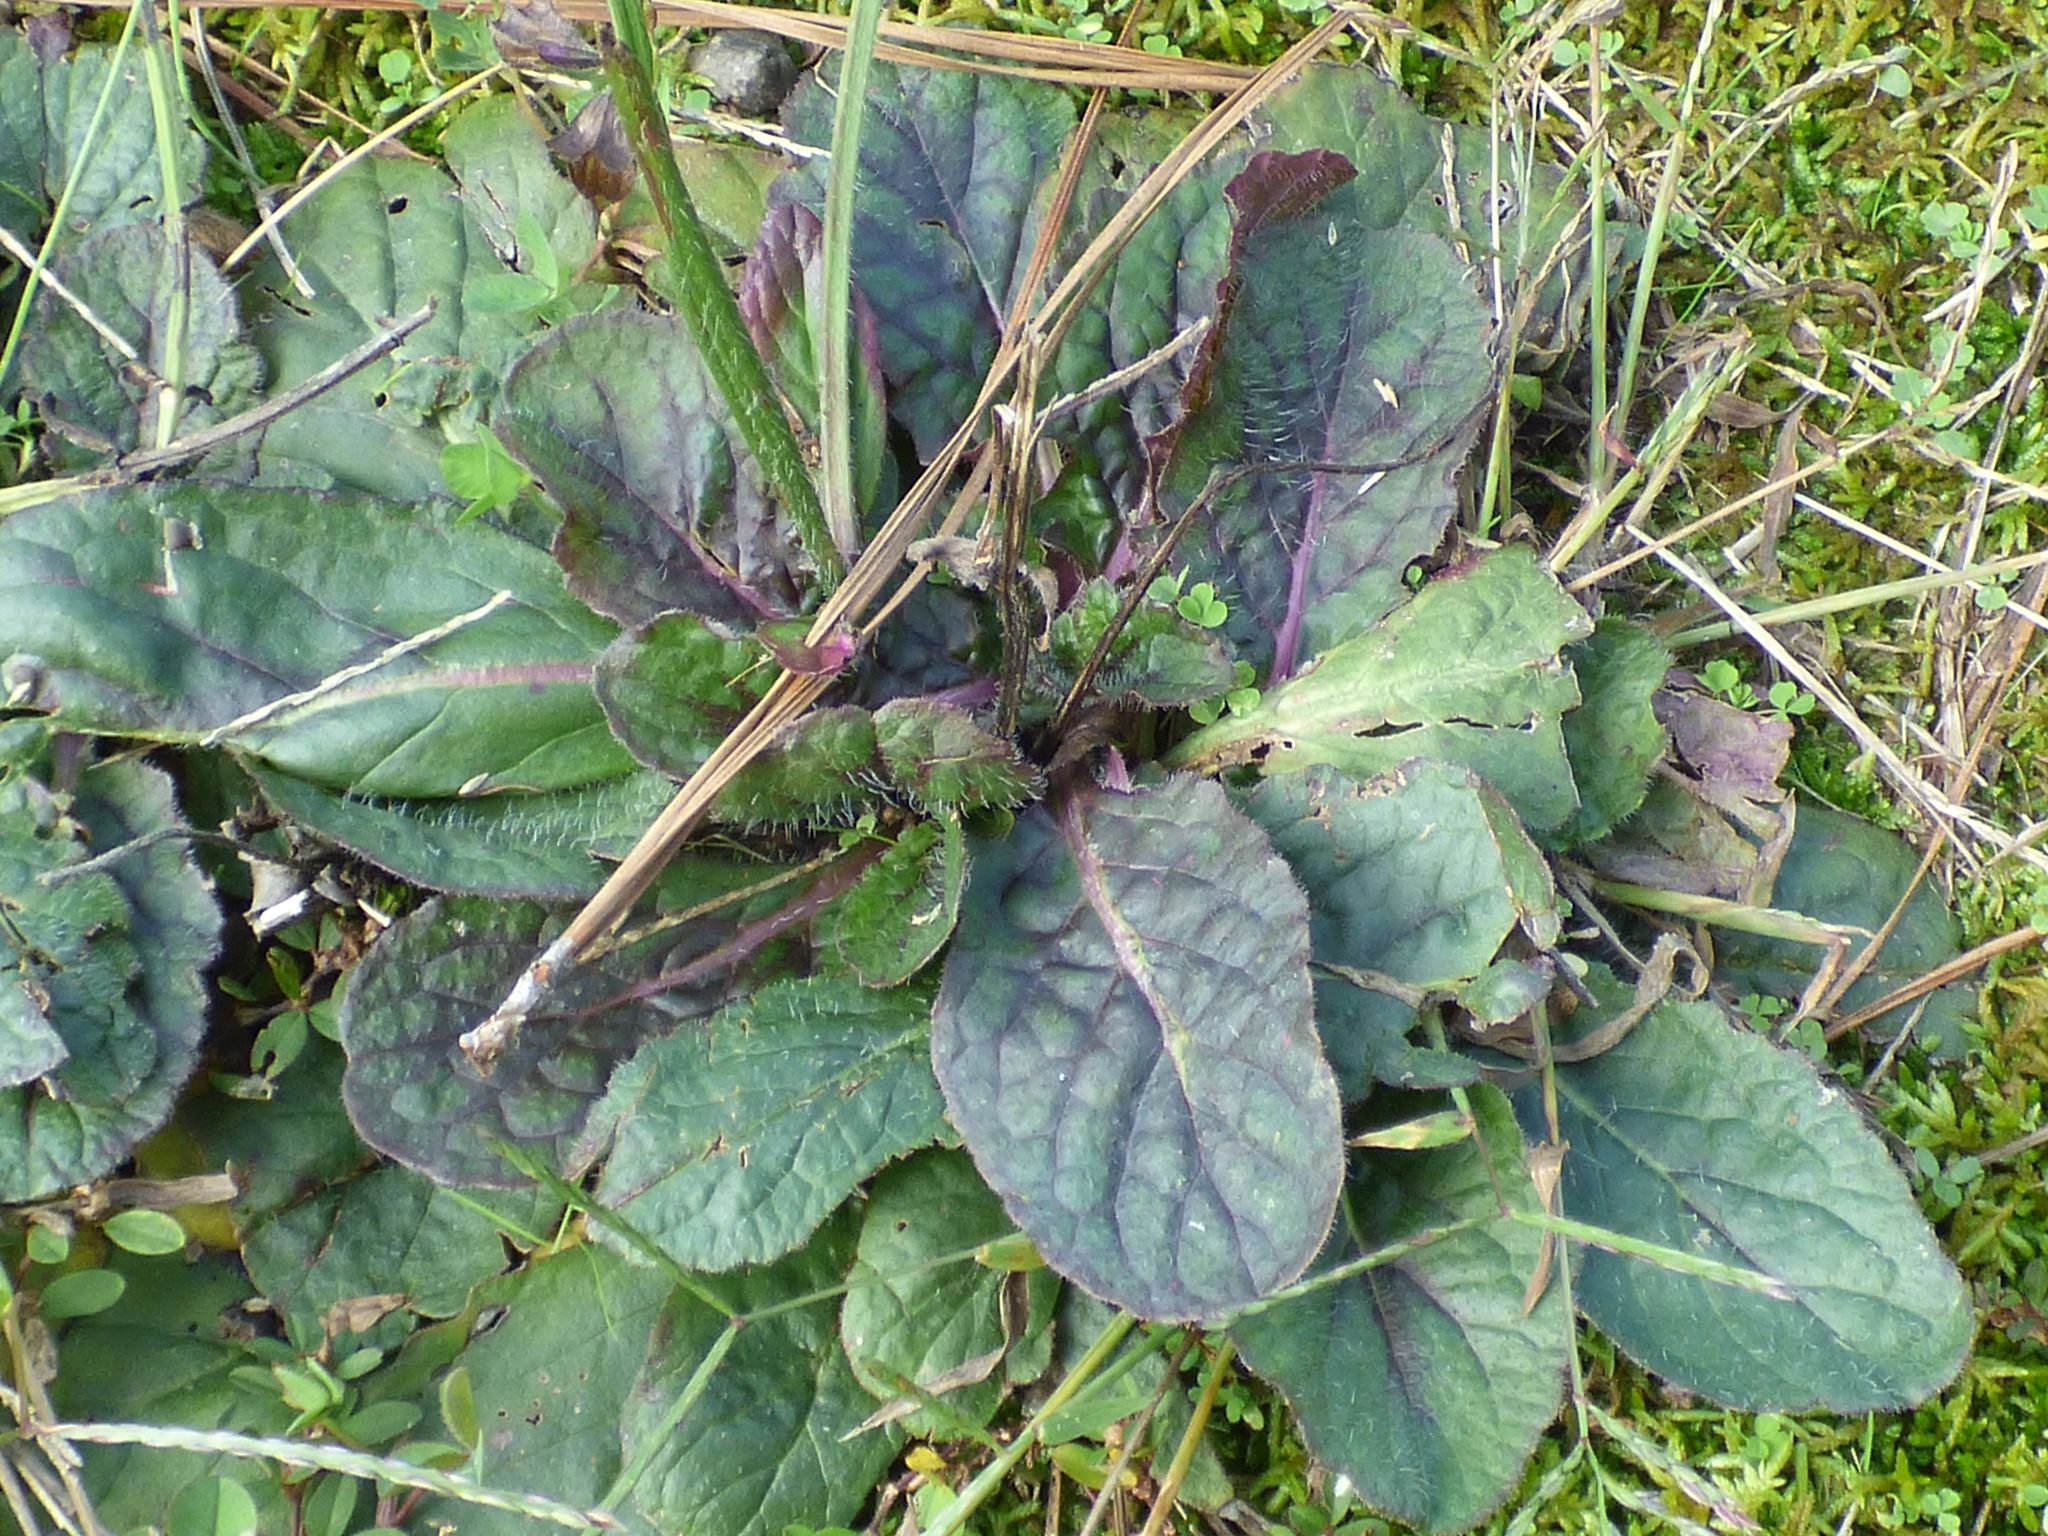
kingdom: Plantae
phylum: Tracheophyta
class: Magnoliopsida
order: Lamiales
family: Lamiaceae
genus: Salvia
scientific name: Salvia lyrata
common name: Cancerweed
